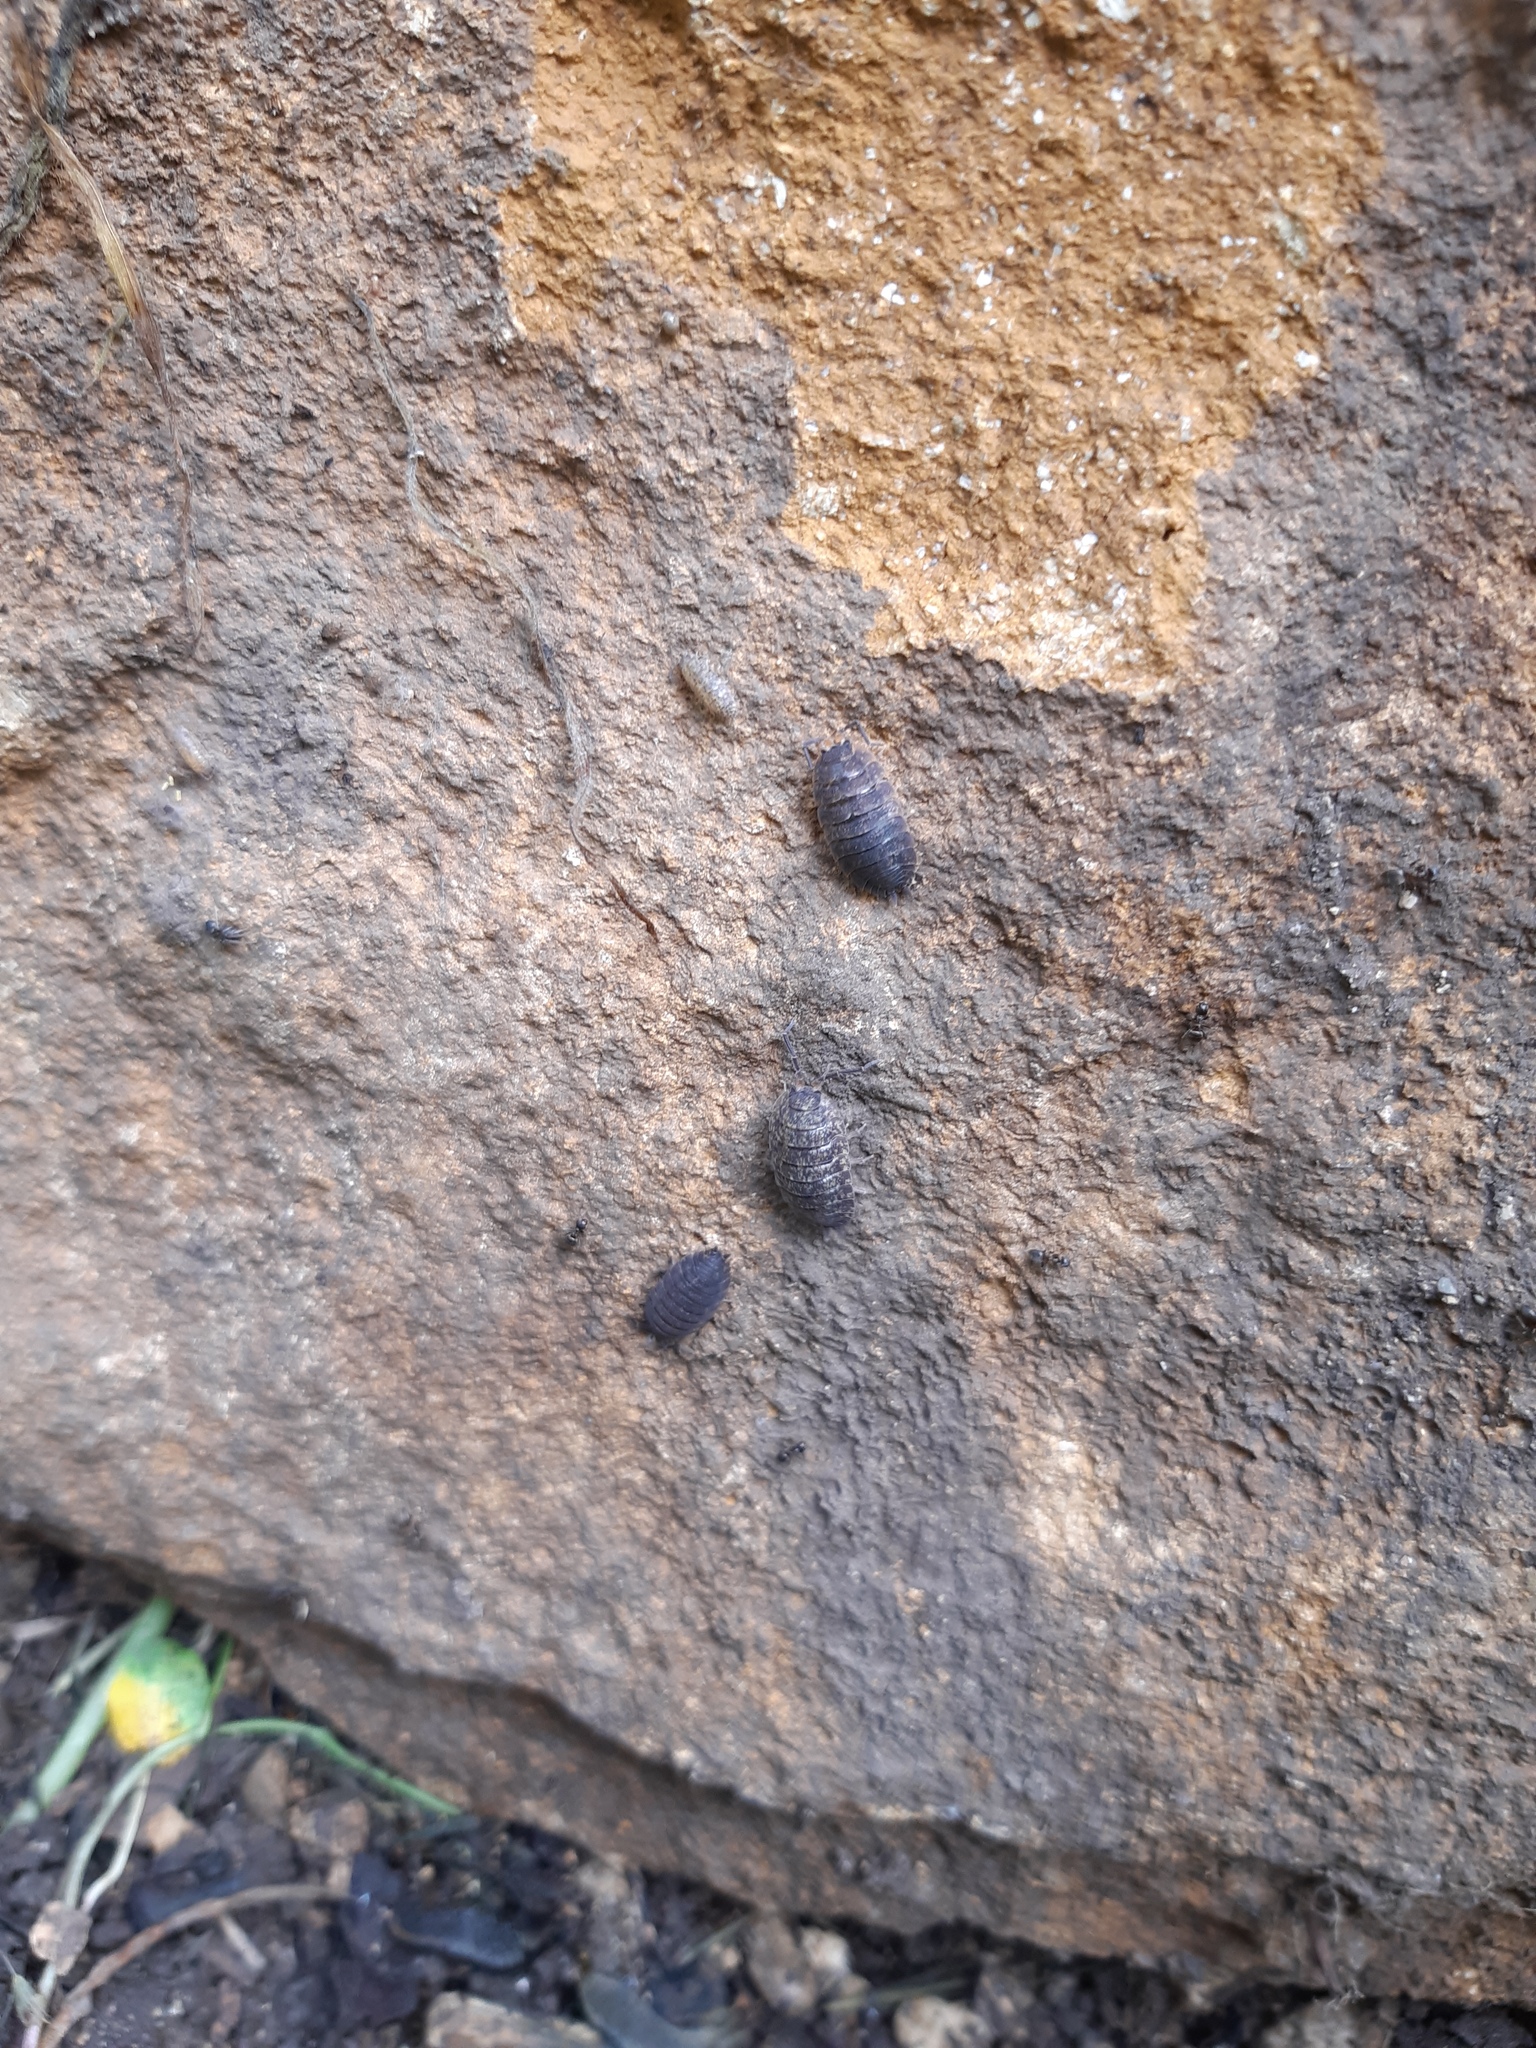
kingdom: Animalia
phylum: Arthropoda
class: Malacostraca
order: Isopoda
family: Porcellionidae
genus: Porcellio
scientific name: Porcellio scaber
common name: Common rough woodlouse
